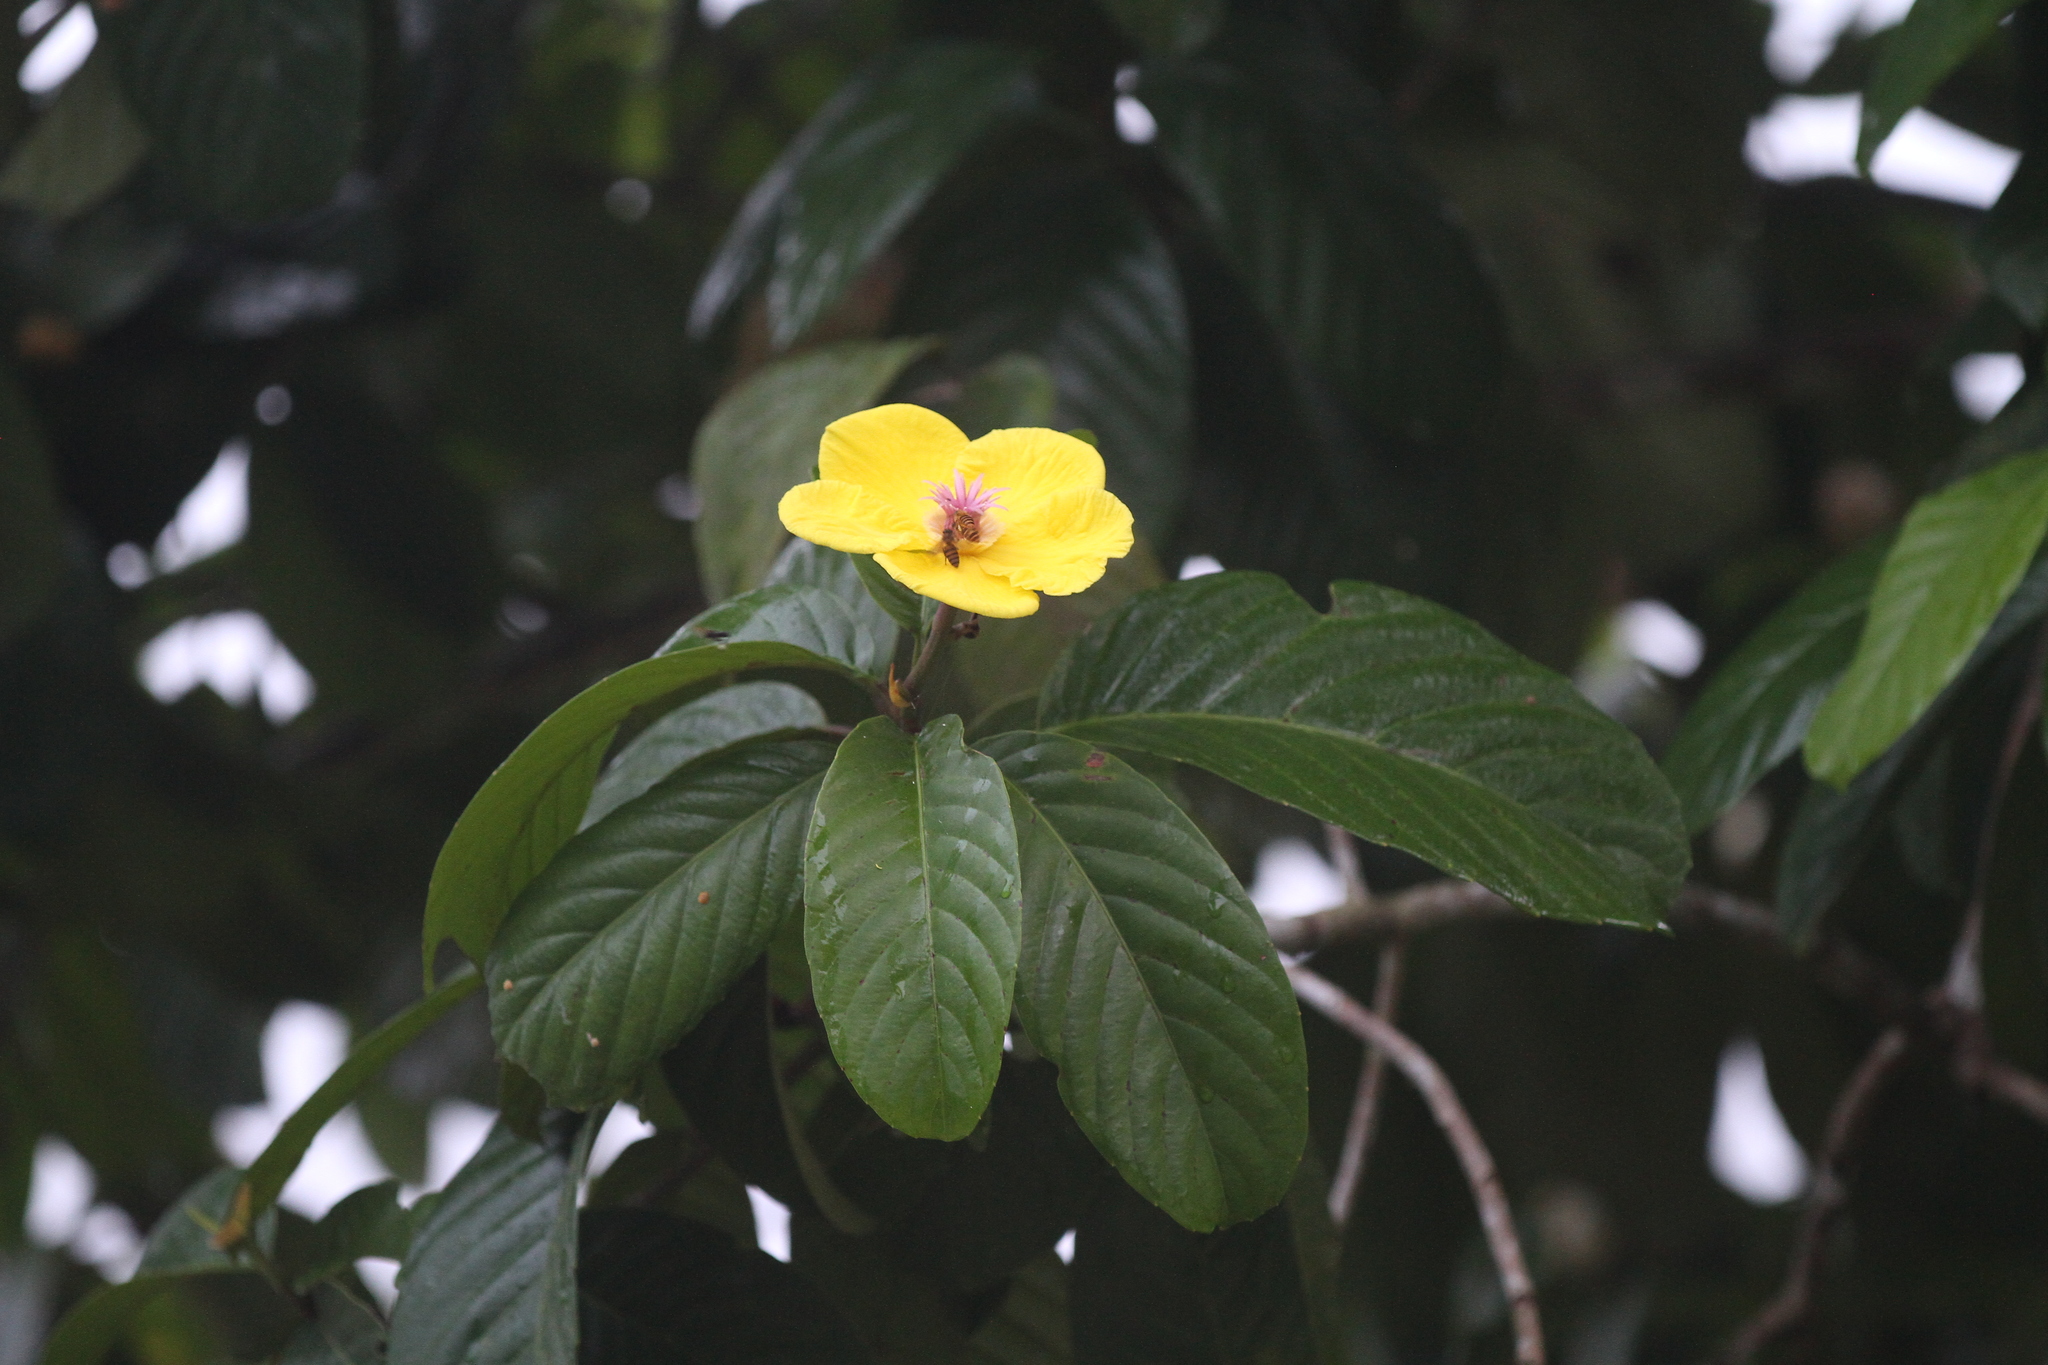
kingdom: Plantae
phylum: Tracheophyta
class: Magnoliopsida
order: Dilleniales
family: Dilleniaceae
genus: Dillenia
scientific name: Dillenia excelsa
